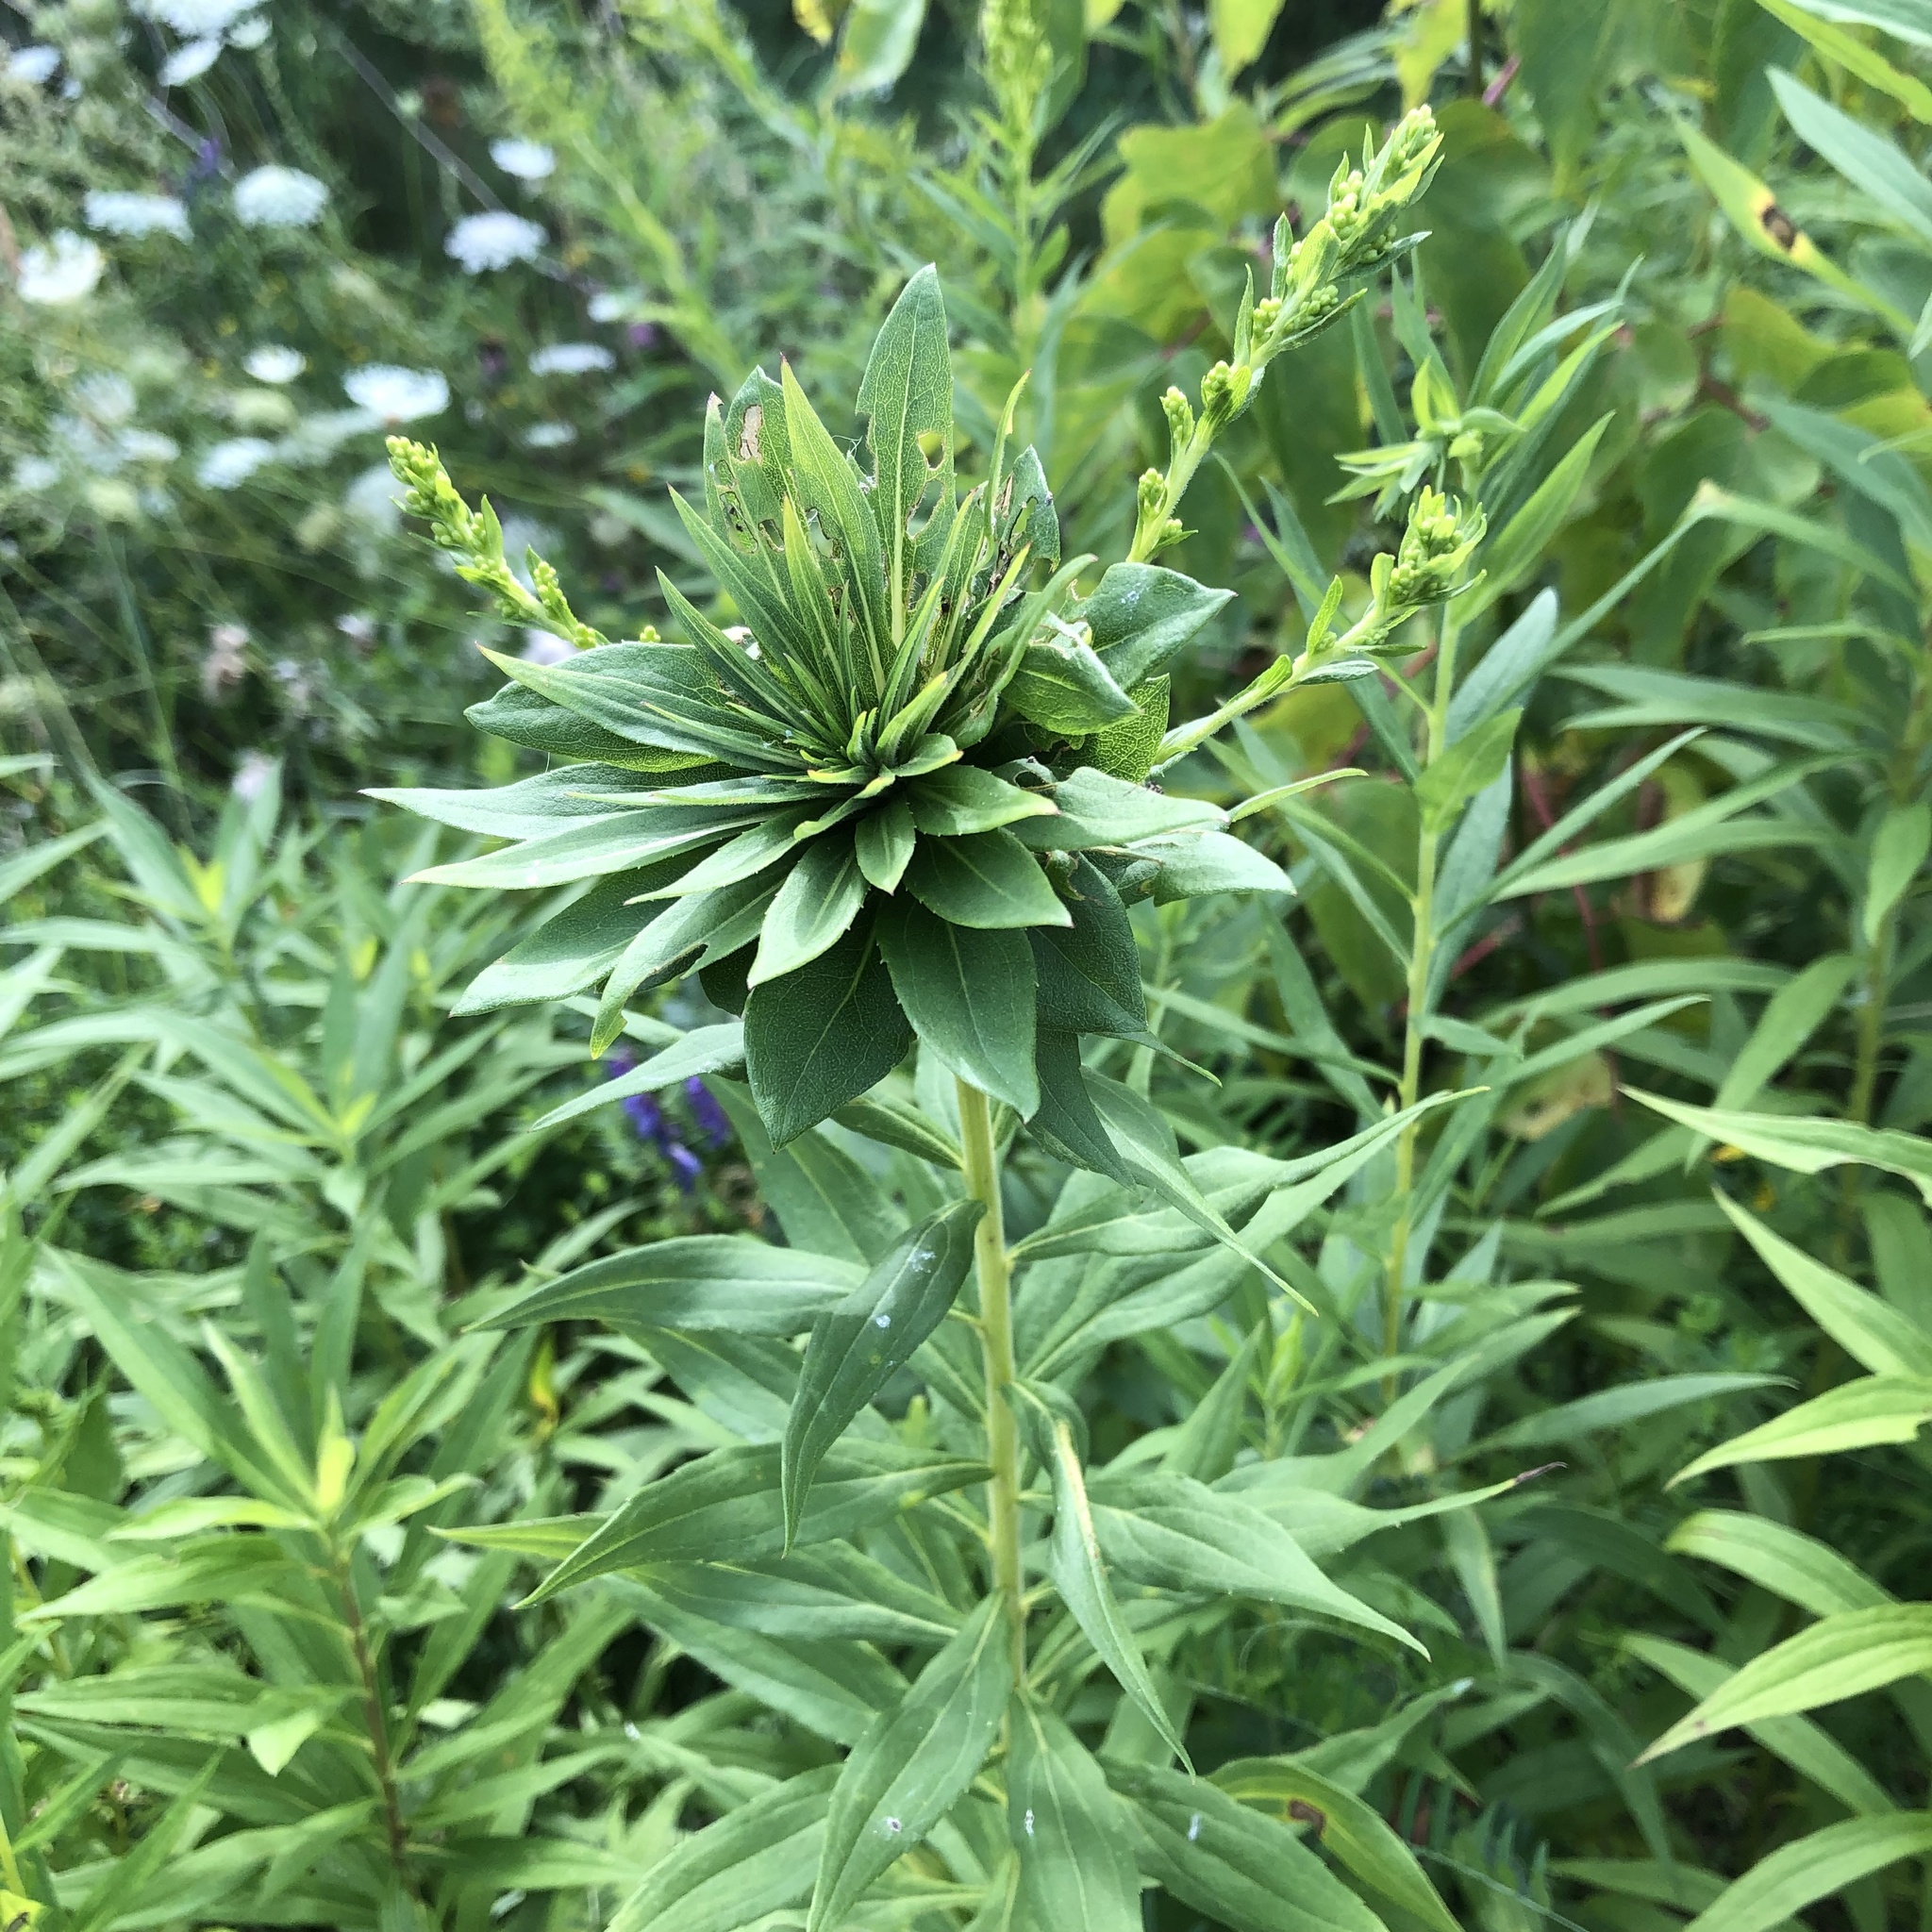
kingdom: Animalia
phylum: Arthropoda
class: Insecta
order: Diptera
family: Cecidomyiidae
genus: Rhopalomyia
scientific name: Rhopalomyia solidaginis
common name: Goldenrod bunch gall midge
